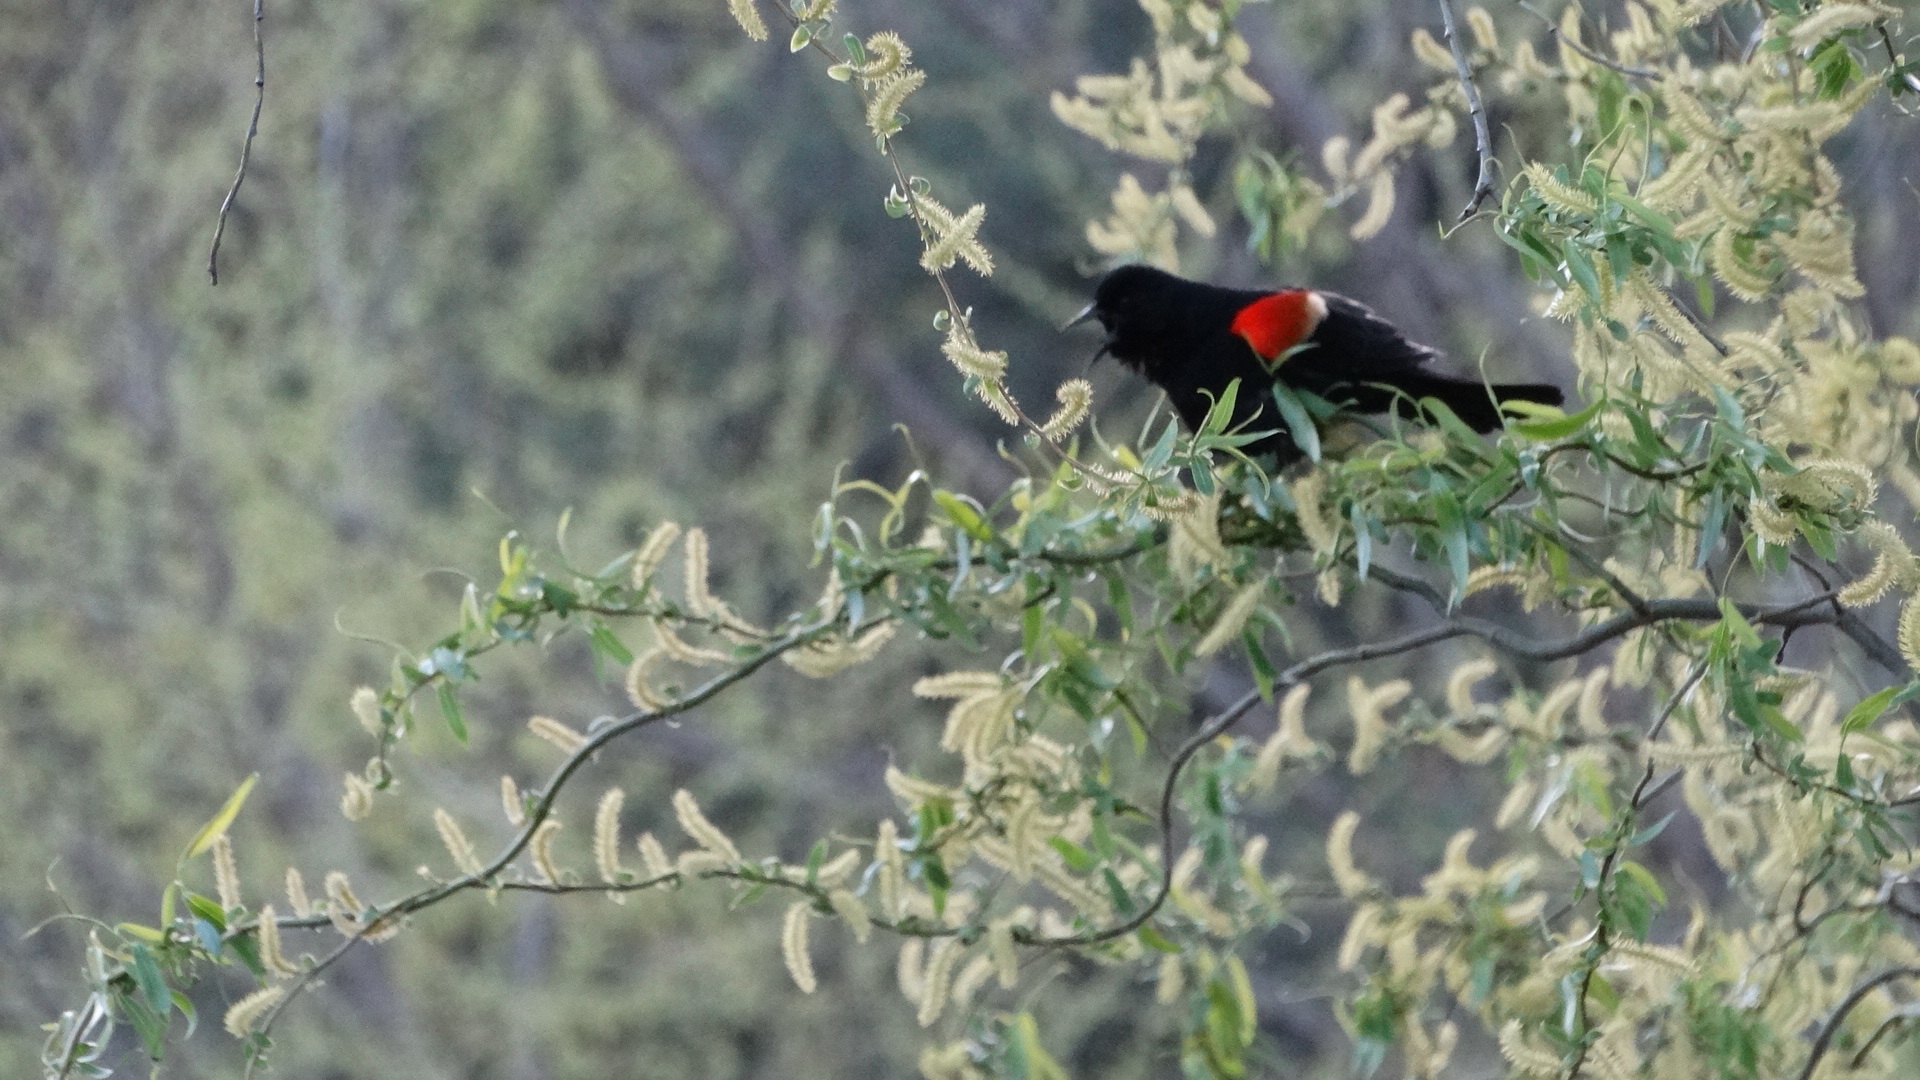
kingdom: Animalia
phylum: Chordata
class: Aves
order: Passeriformes
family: Icteridae
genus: Agelaius
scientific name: Agelaius phoeniceus
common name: Red-winged blackbird
